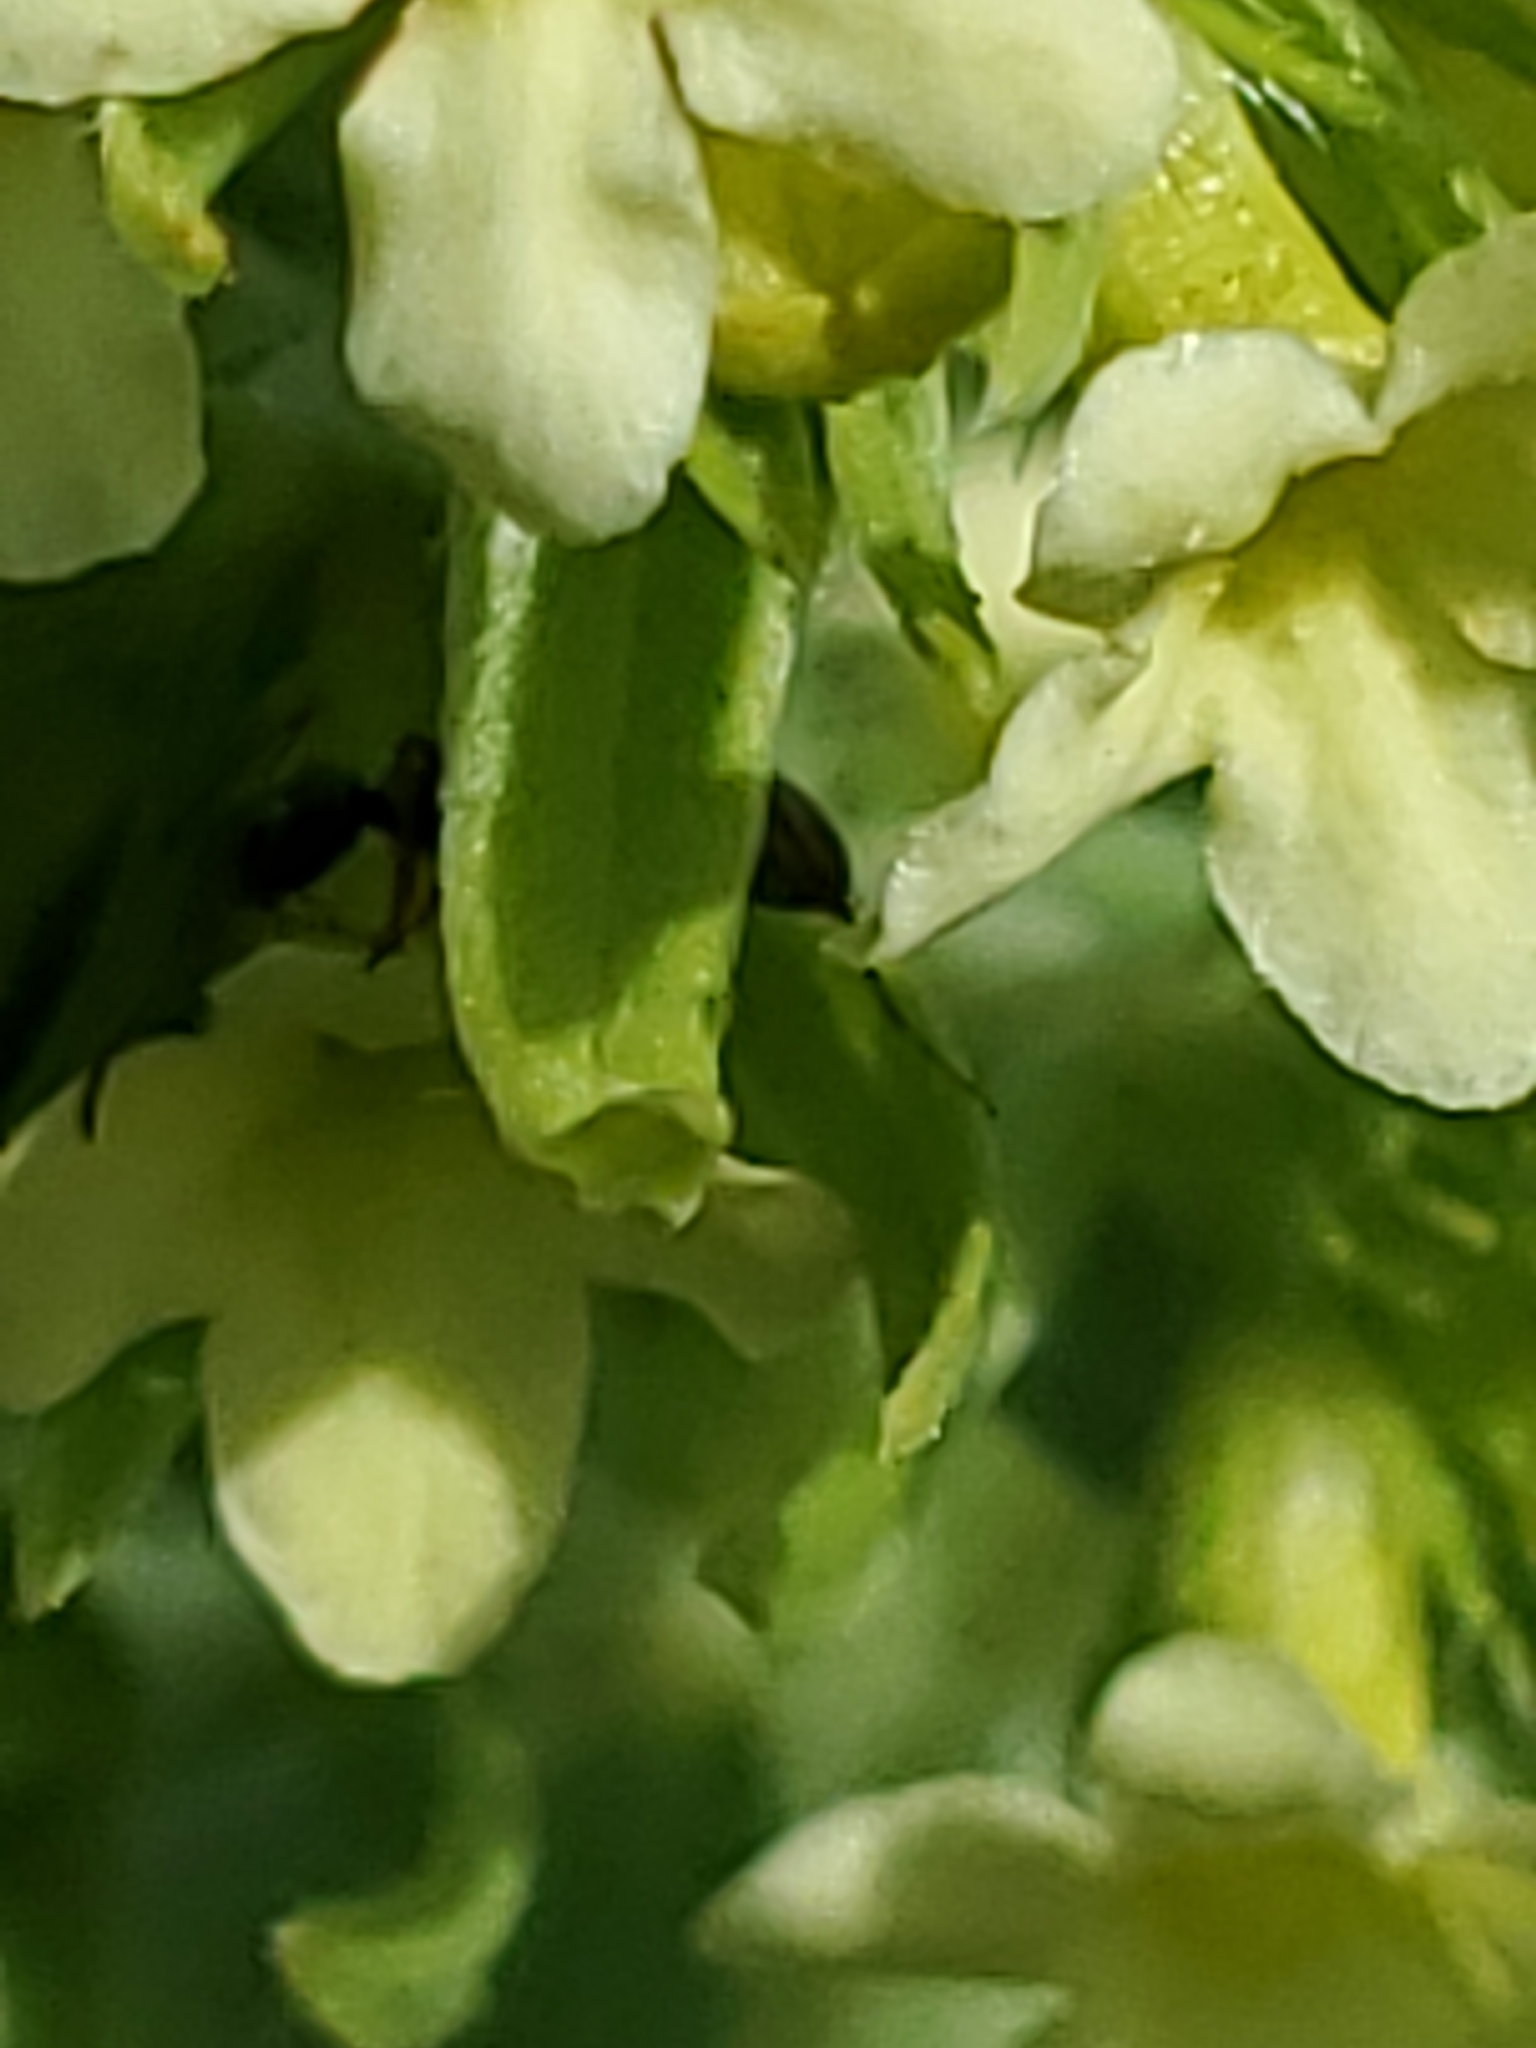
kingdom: Plantae
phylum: Tracheophyta
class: Magnoliopsida
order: Boraginales
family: Boraginaceae
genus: Lithospermum
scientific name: Lithospermum ruderale
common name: Western gromwell
